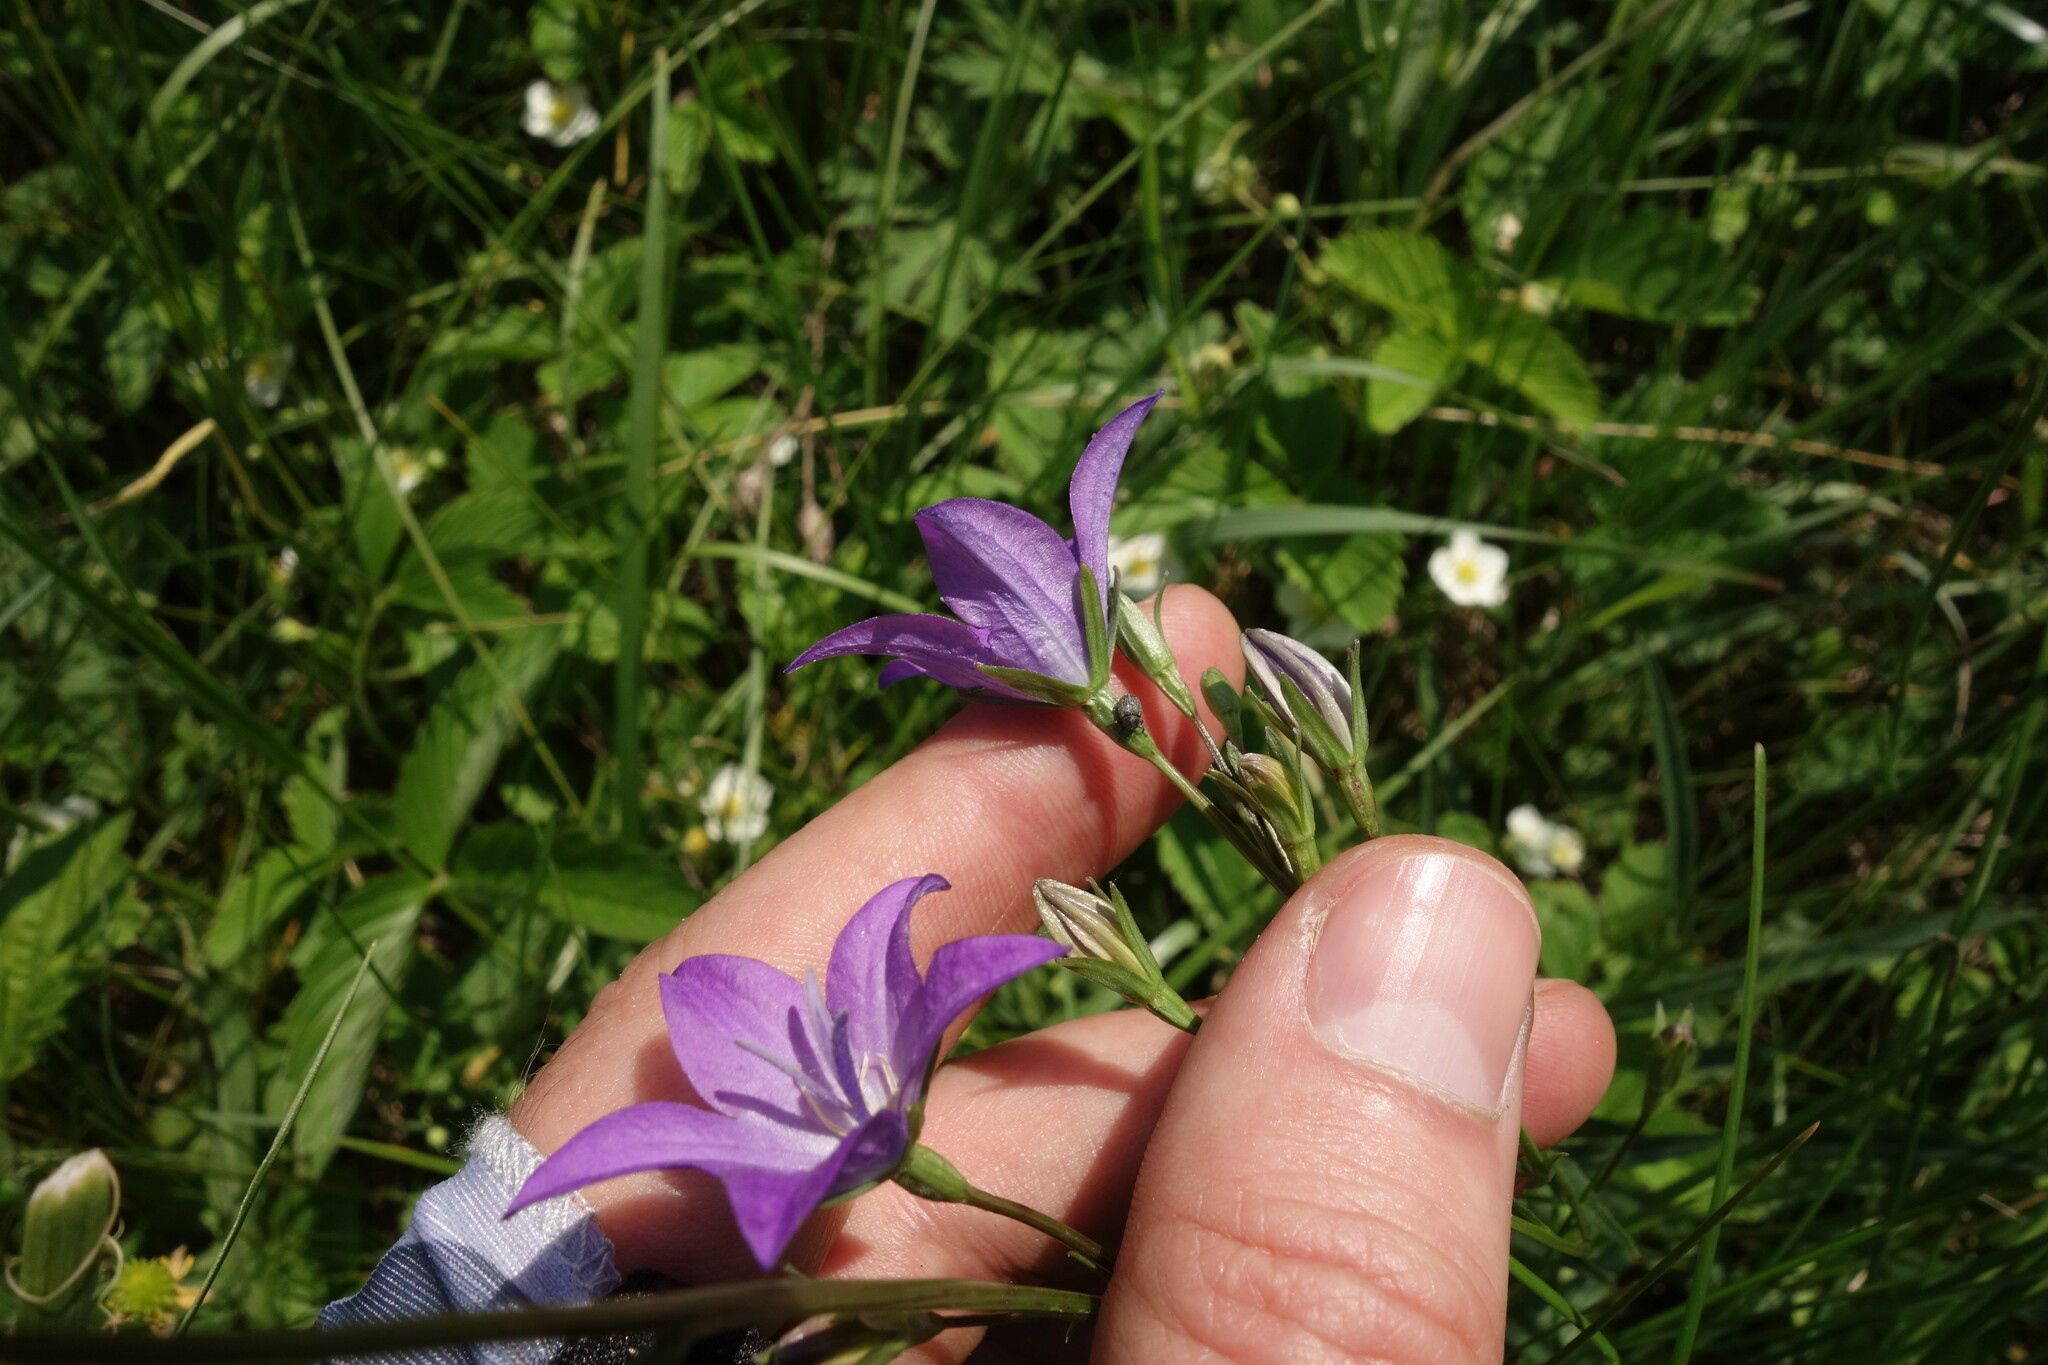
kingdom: Plantae
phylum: Tracheophyta
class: Magnoliopsida
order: Asterales
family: Campanulaceae
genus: Campanula
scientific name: Campanula stevenii
